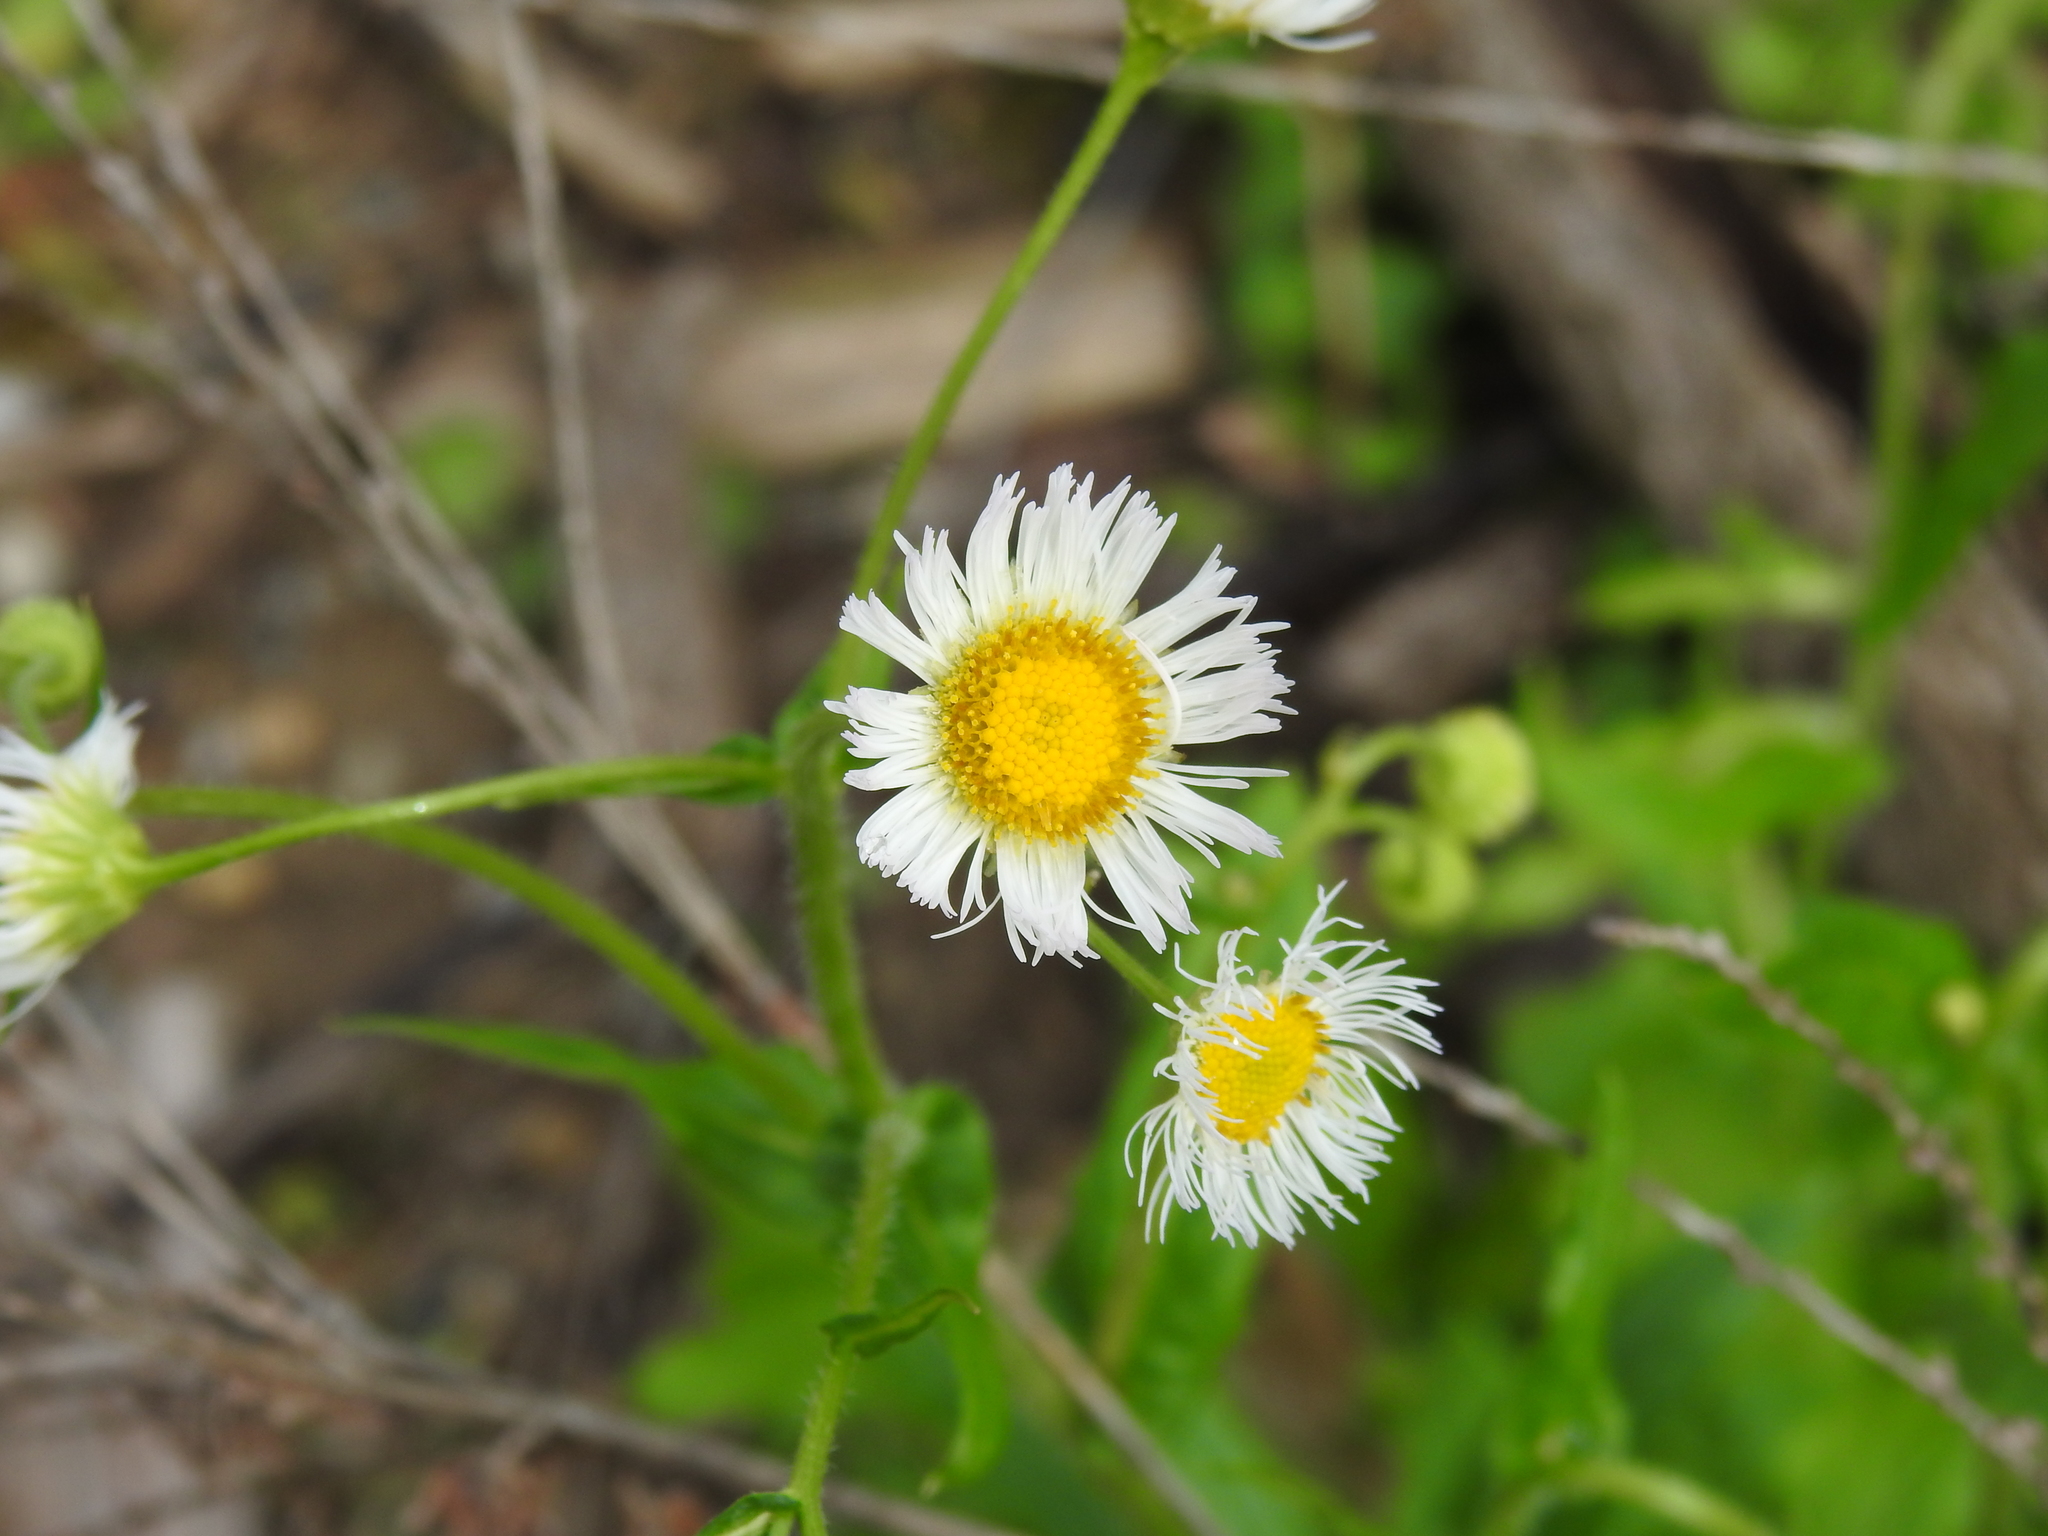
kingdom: Plantae
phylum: Tracheophyta
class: Magnoliopsida
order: Asterales
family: Asteraceae
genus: Erigeron
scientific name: Erigeron philadelphicus
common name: Robin's-plantain
